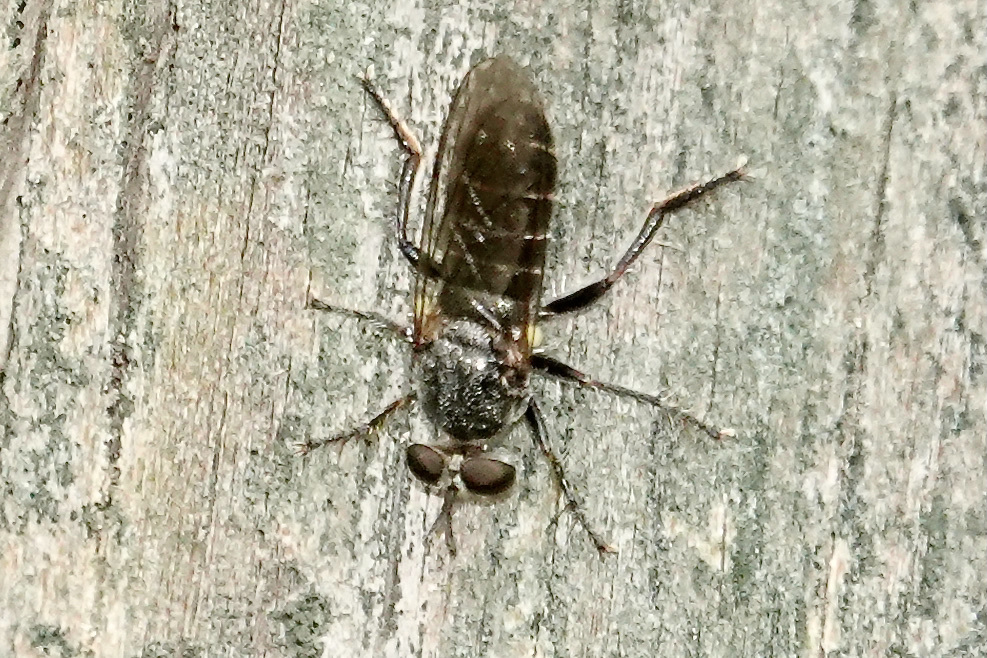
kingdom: Animalia
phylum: Arthropoda
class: Insecta
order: Diptera
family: Asilidae
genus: Atomosia
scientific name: Atomosia puella
